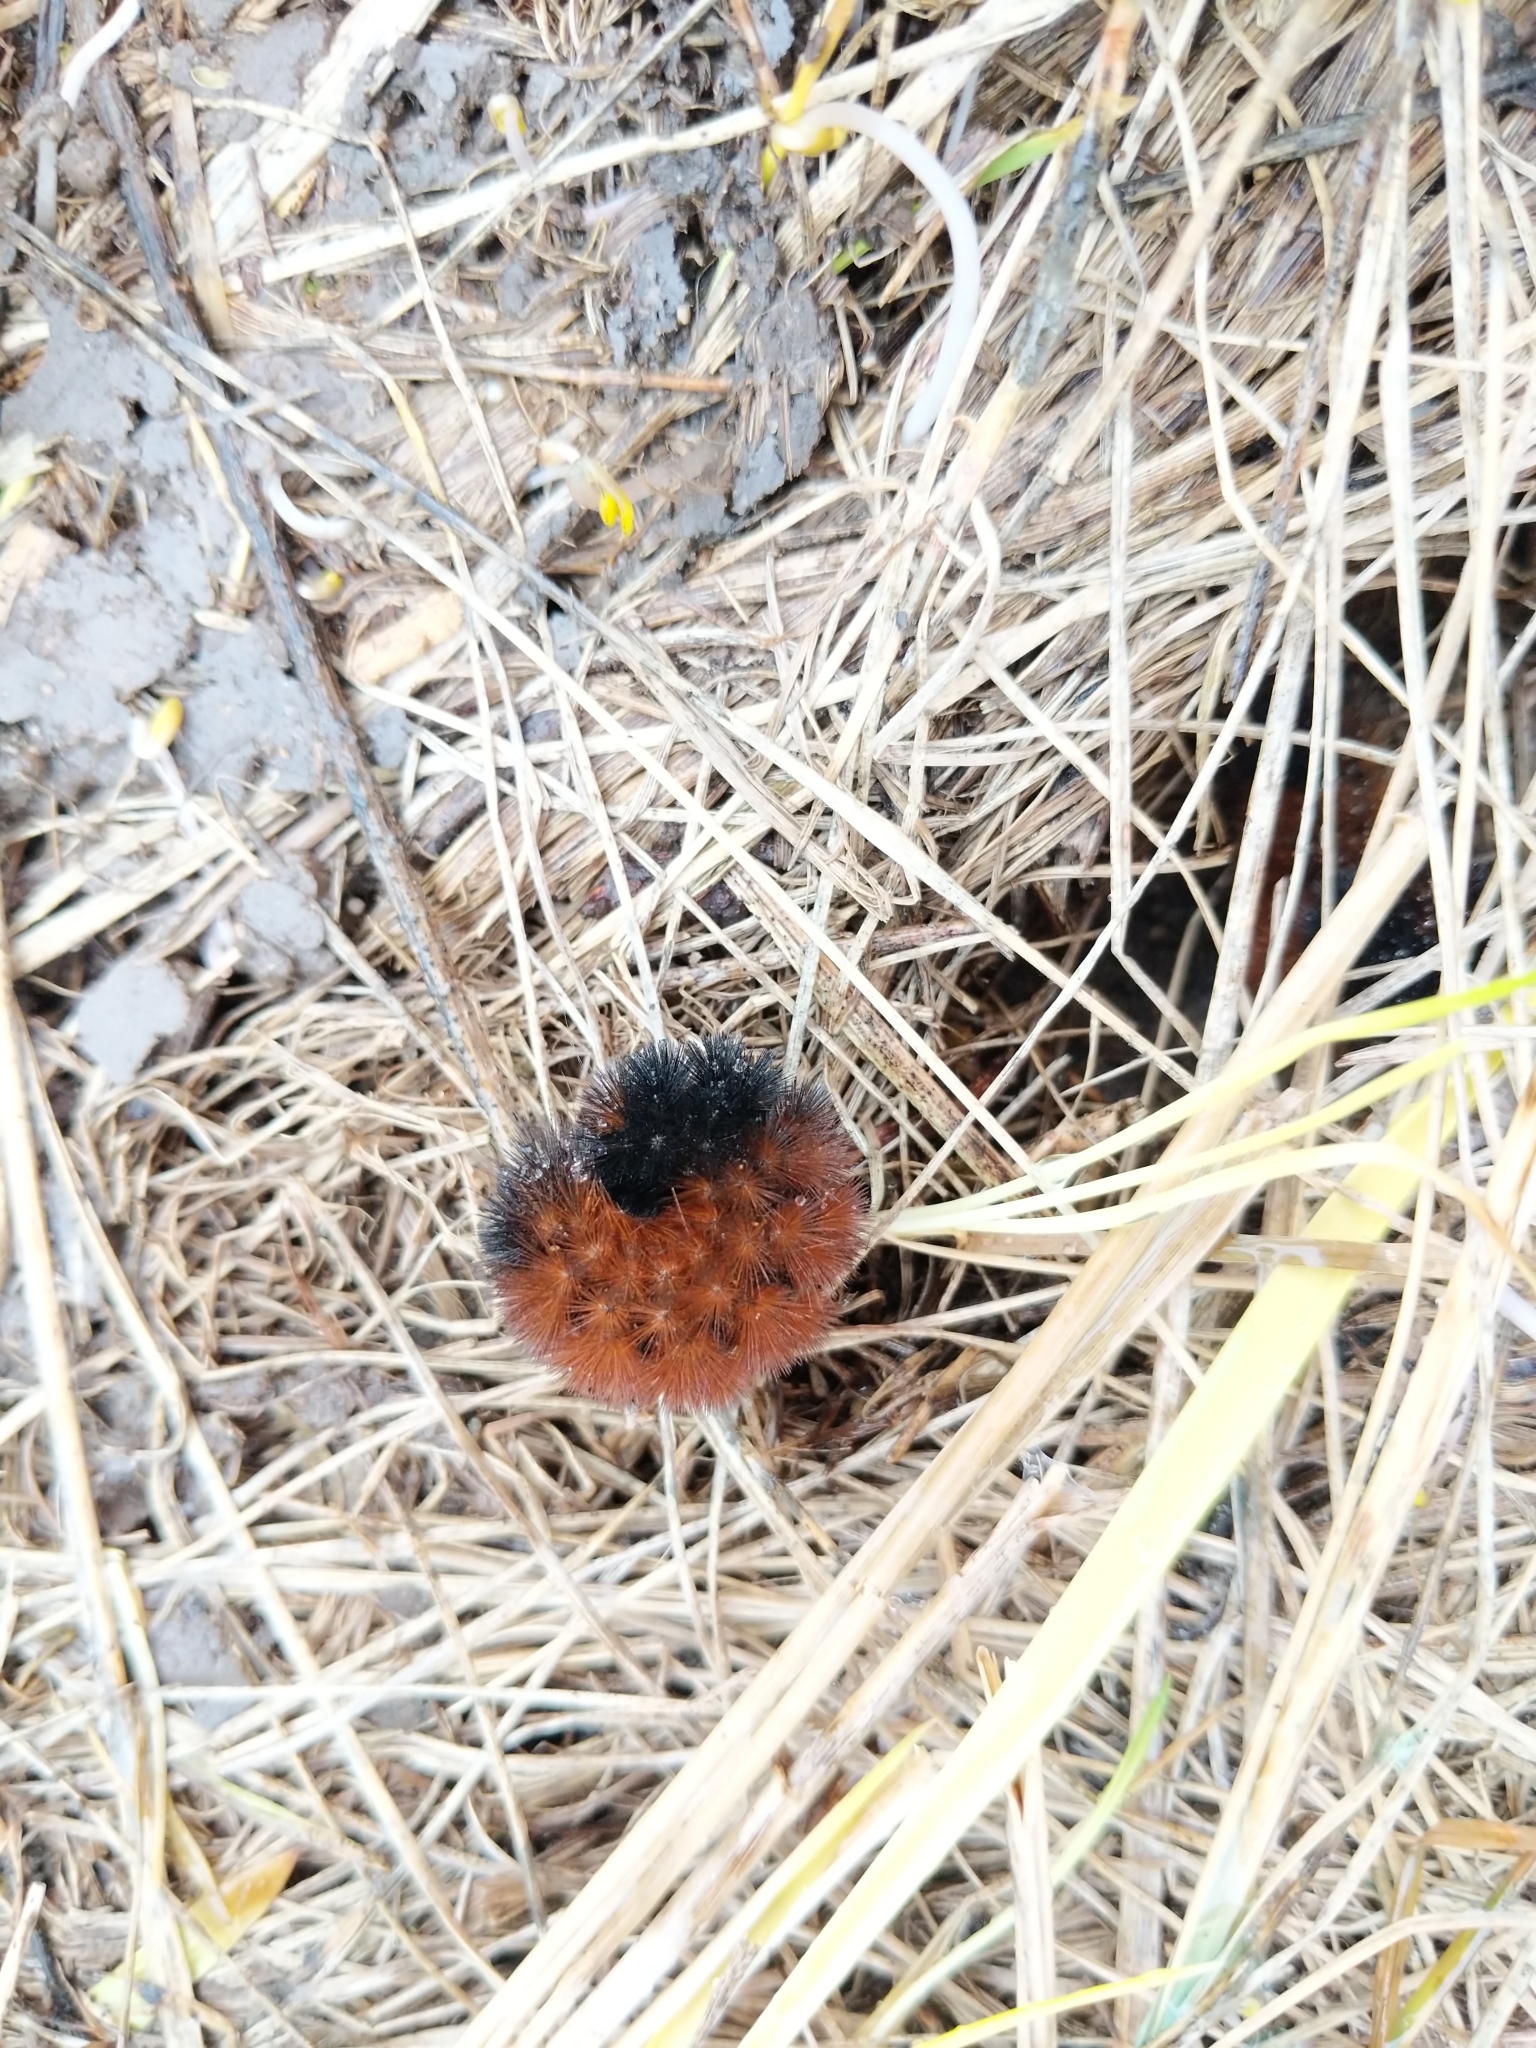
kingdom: Animalia
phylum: Arthropoda
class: Insecta
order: Lepidoptera
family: Erebidae
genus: Pyrrharctia
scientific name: Pyrrharctia isabella
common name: Isabella tiger moth
